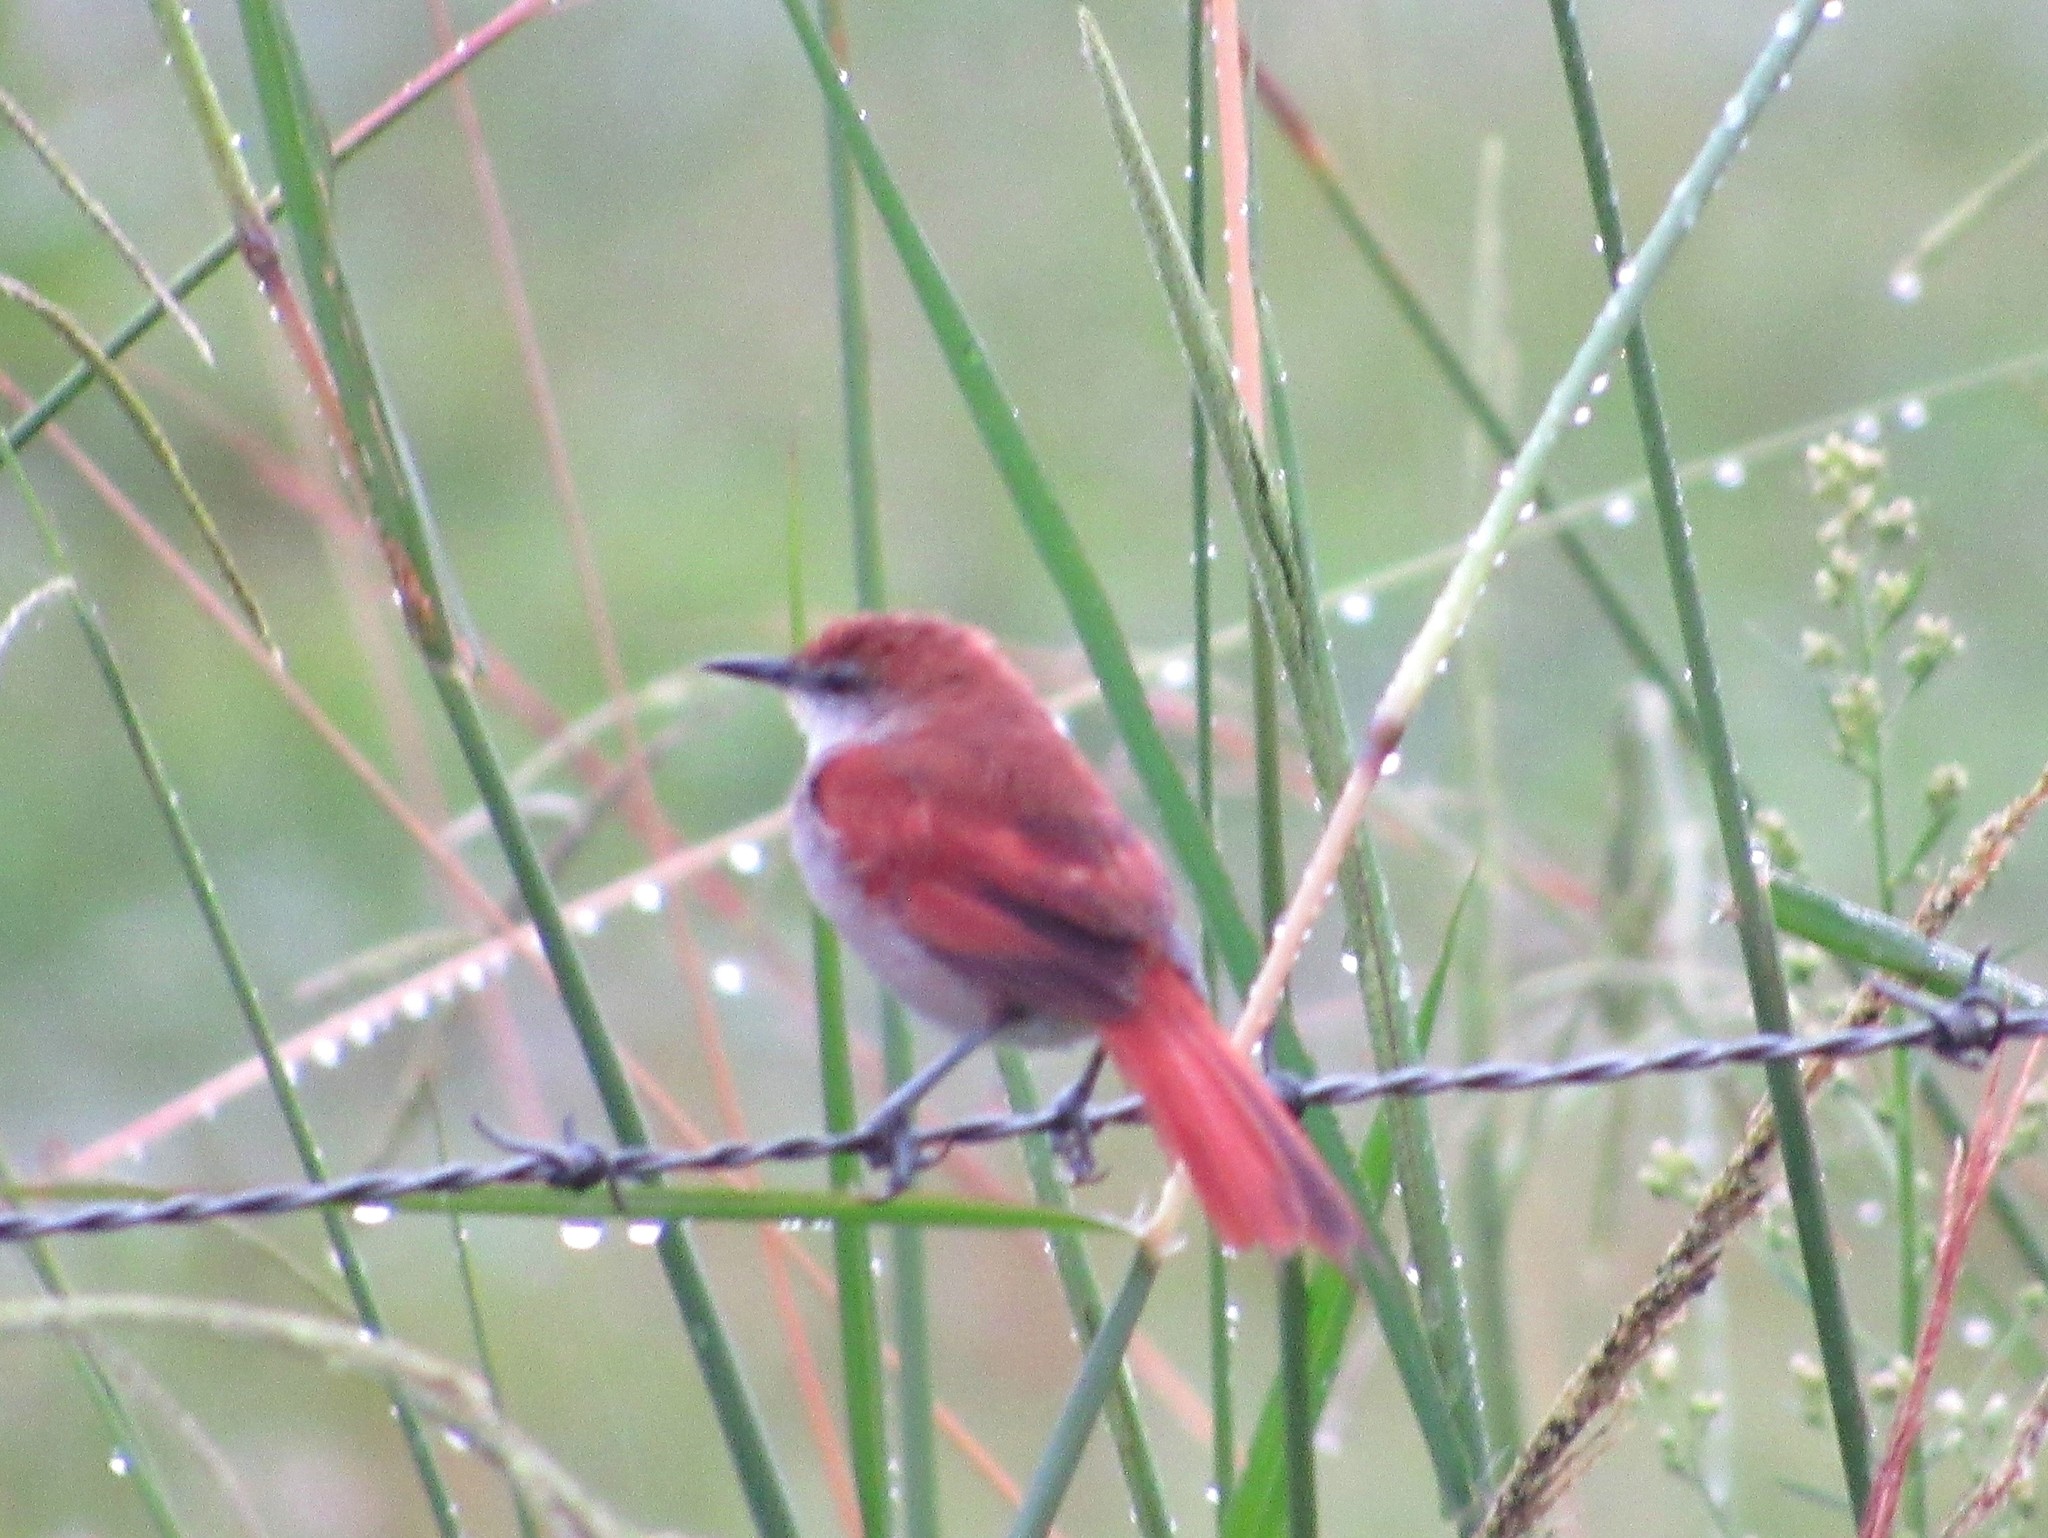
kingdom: Animalia
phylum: Chordata
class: Aves
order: Passeriformes
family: Furnariidae
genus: Certhiaxis
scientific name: Certhiaxis cinnamomeus
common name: Yellow-chinned spinetail
